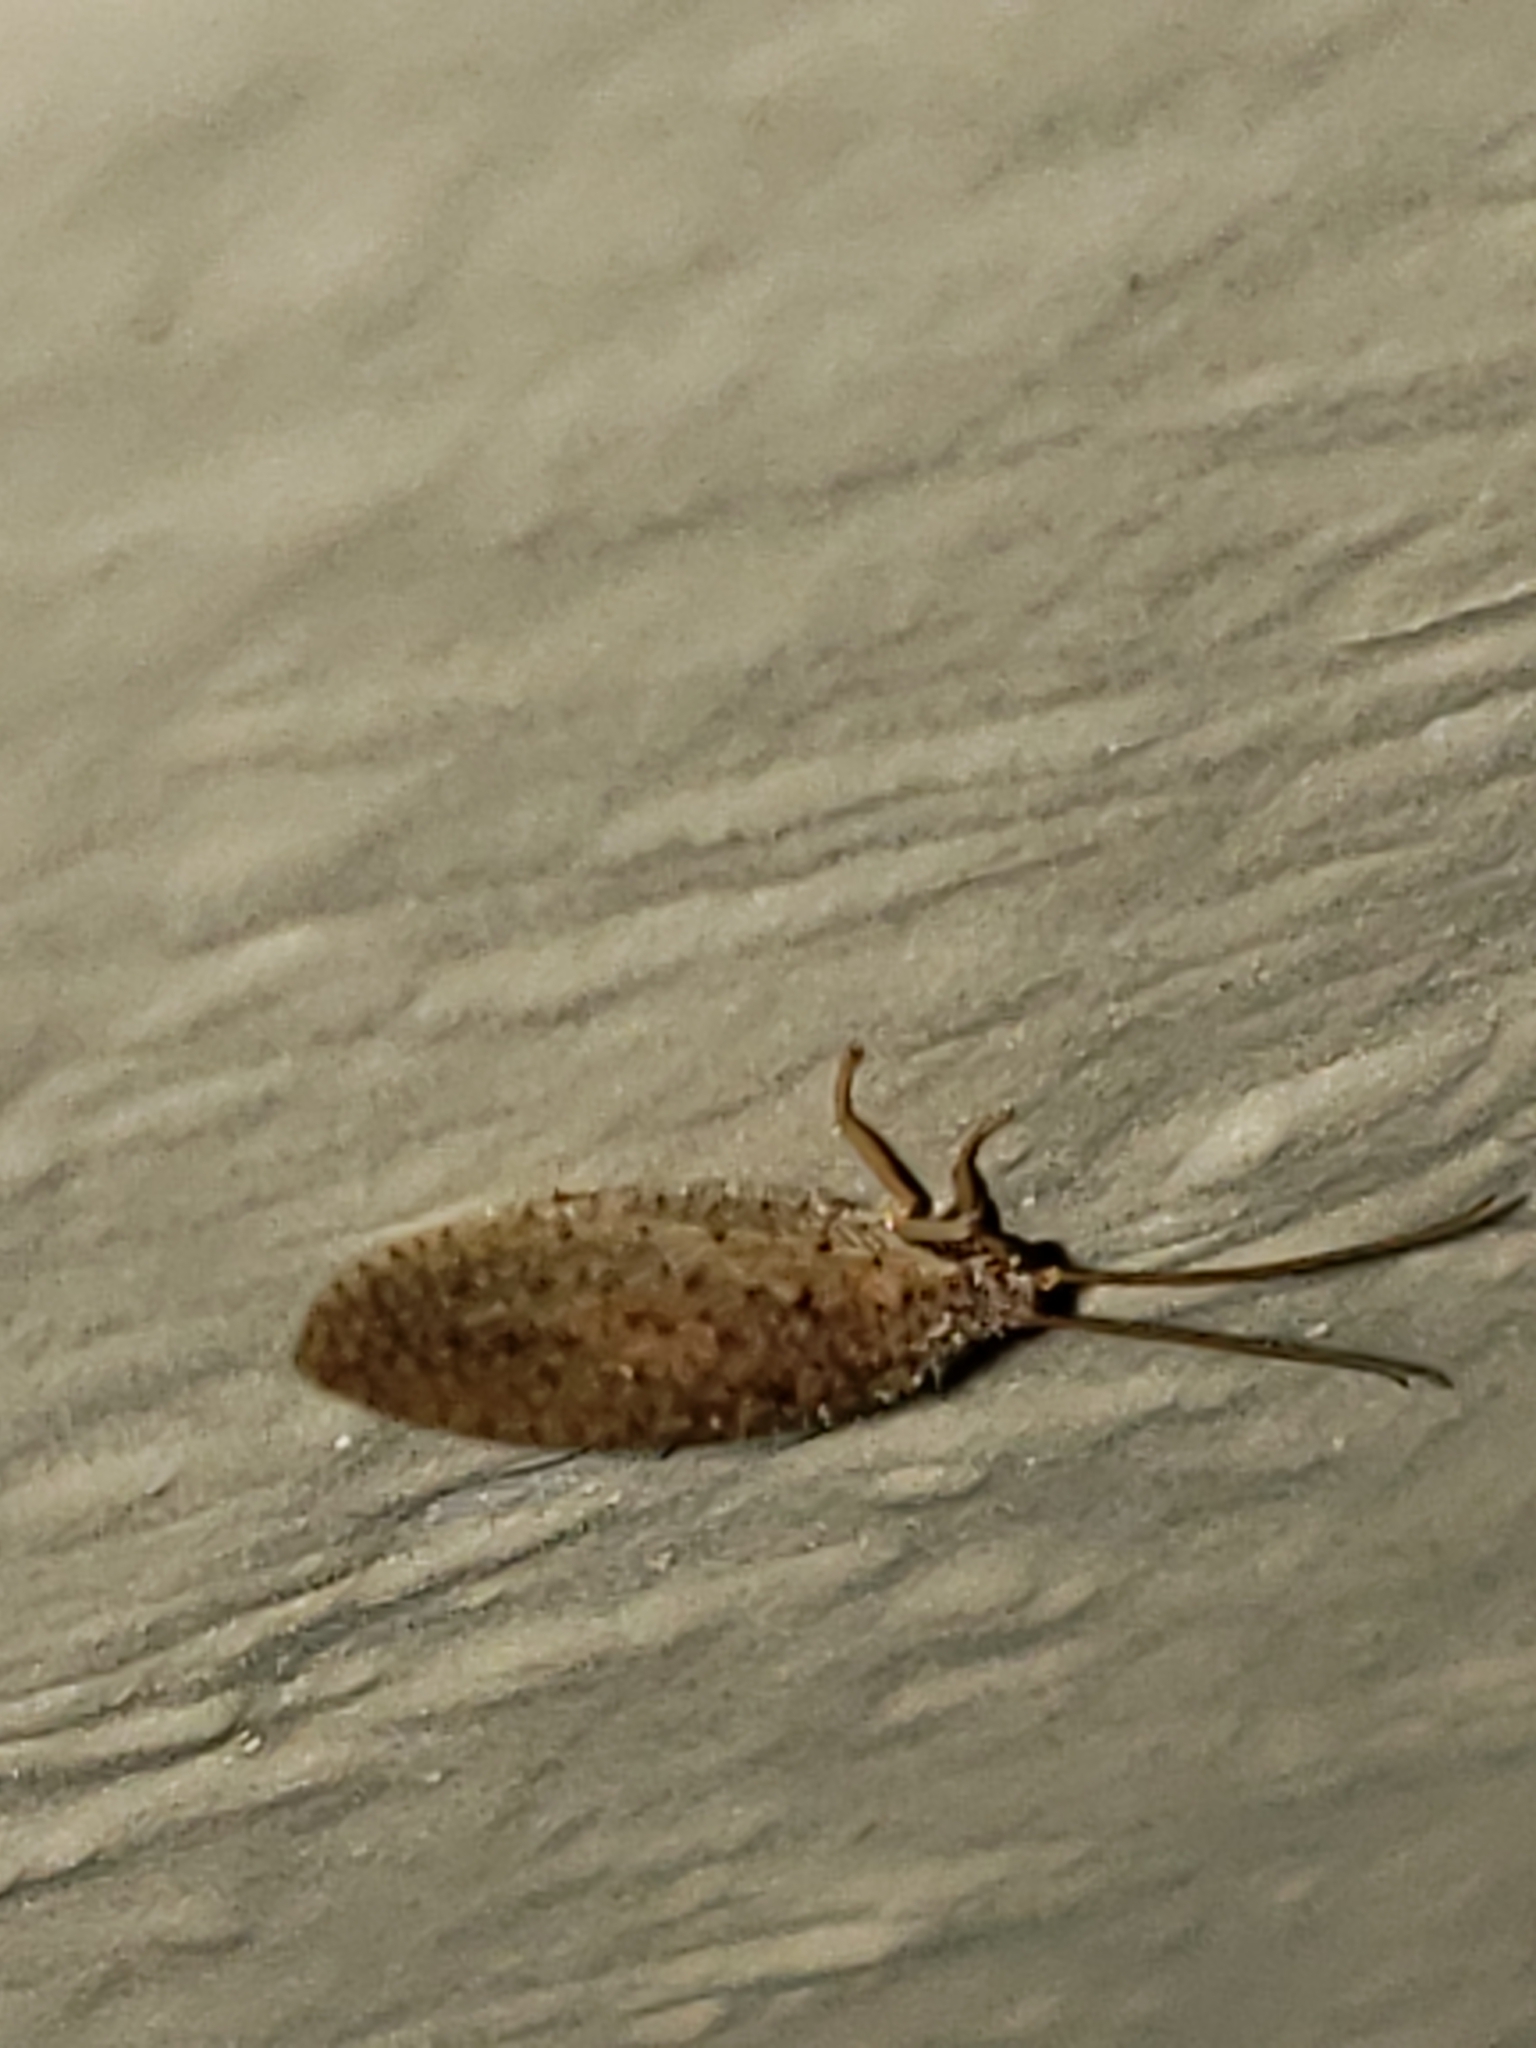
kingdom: Animalia
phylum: Arthropoda
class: Insecta
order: Neuroptera
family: Hemerobiidae
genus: Micromus
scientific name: Micromus subanticus
